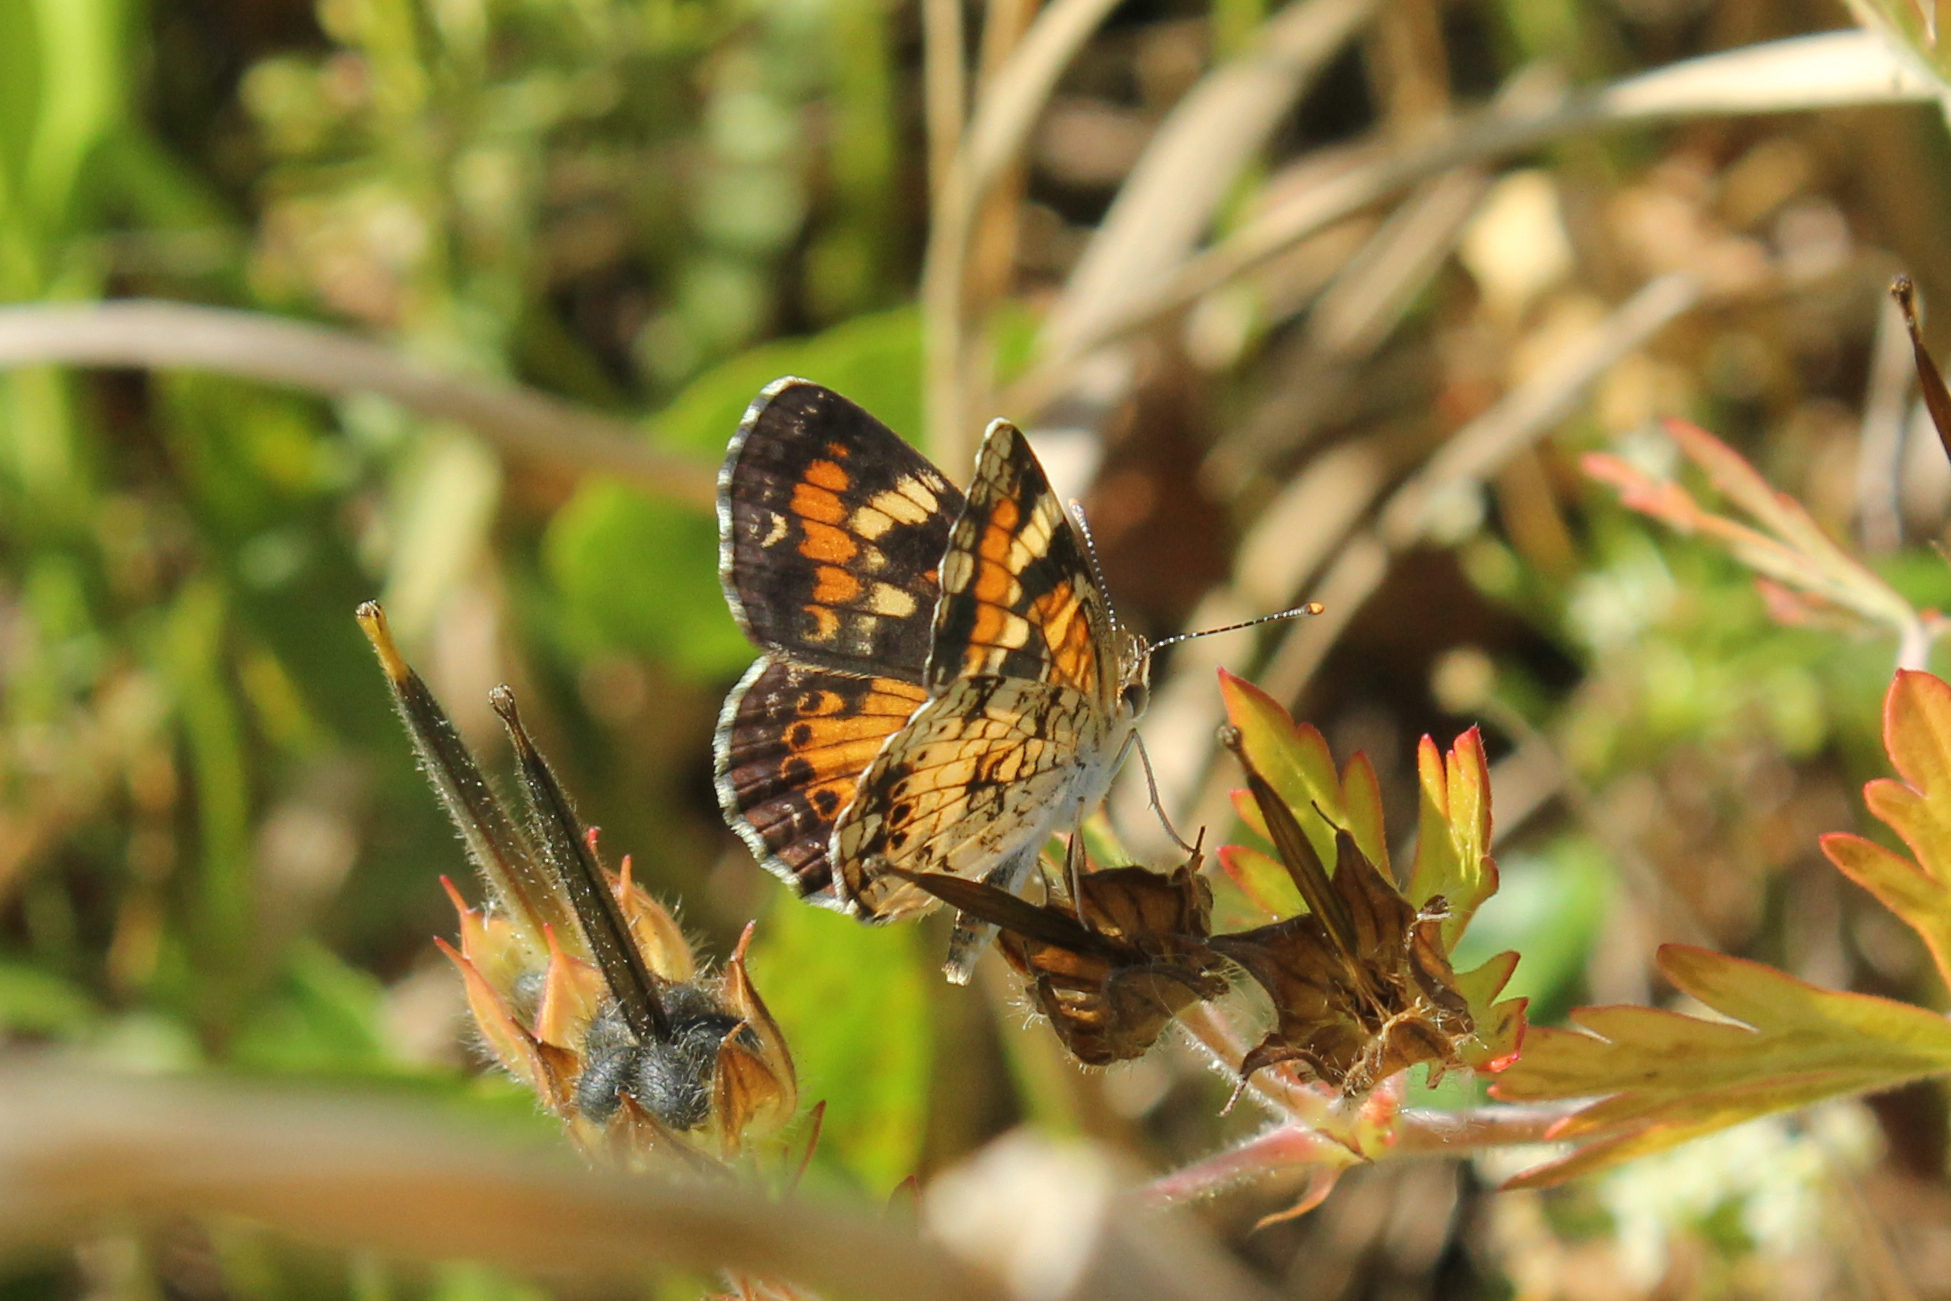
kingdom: Animalia
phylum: Arthropoda
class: Insecta
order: Lepidoptera
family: Nymphalidae
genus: Phyciodes
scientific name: Phyciodes phaon
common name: Phaon crescent
